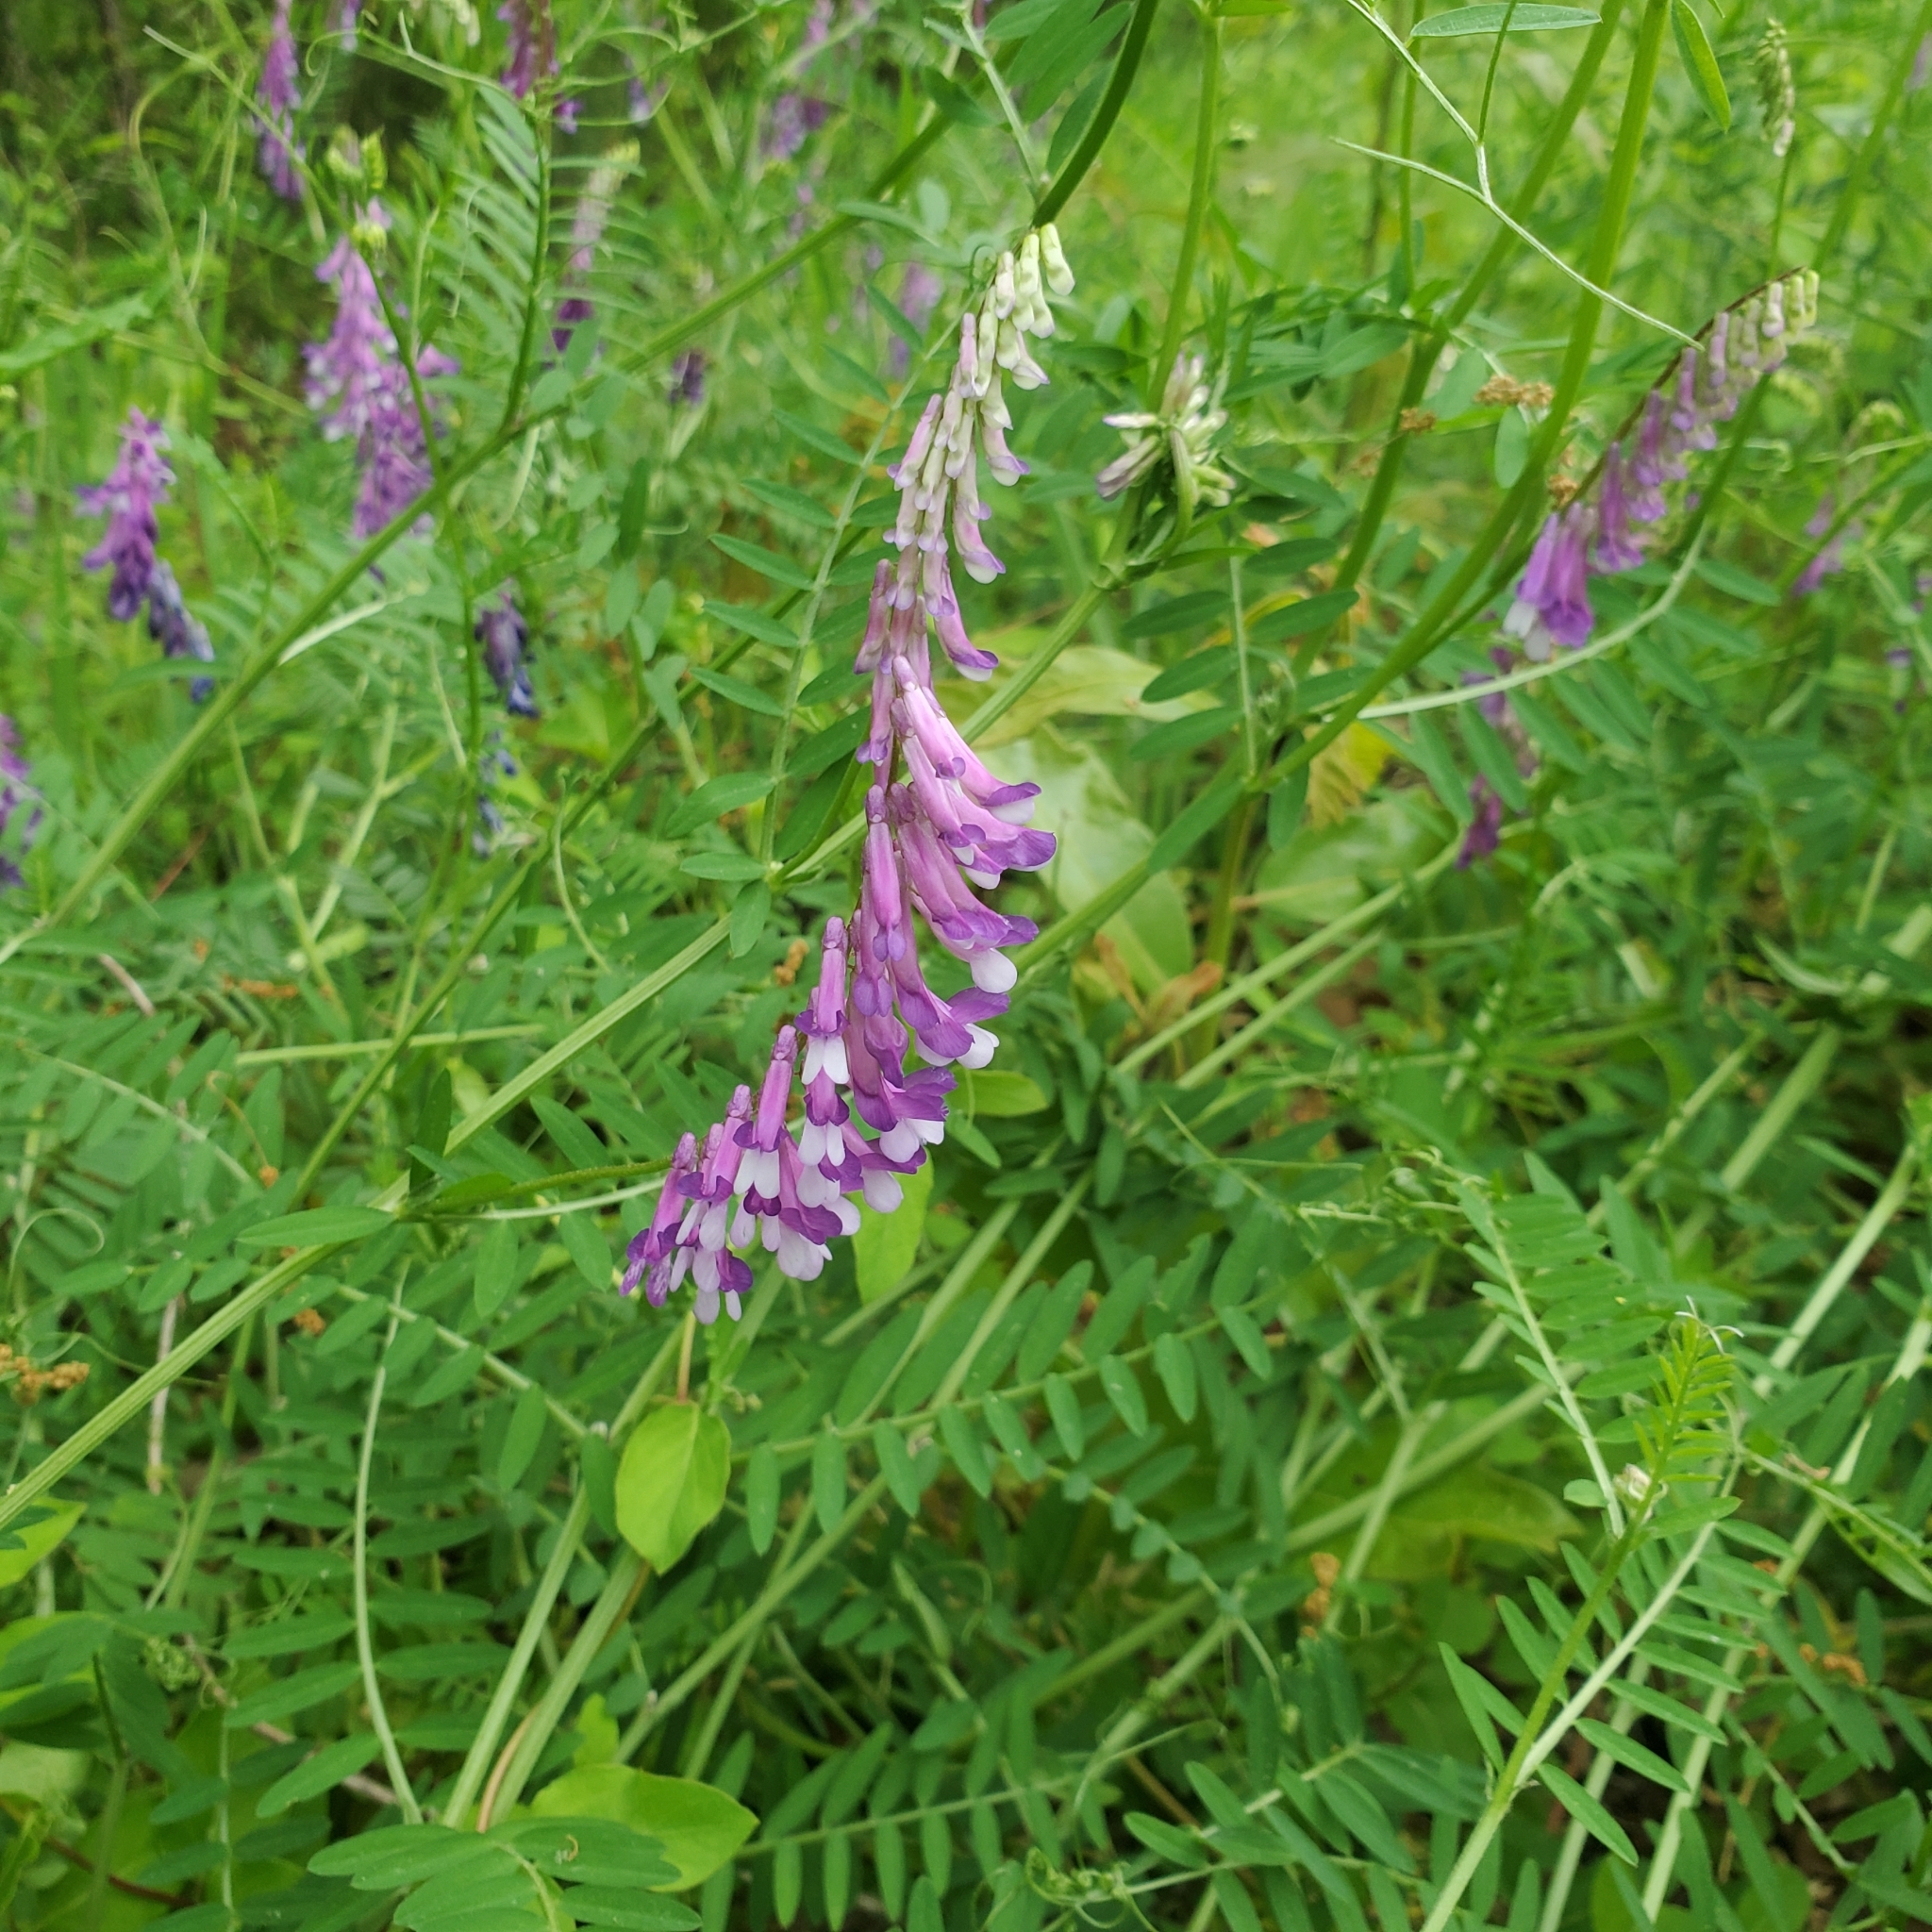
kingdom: Plantae
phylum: Tracheophyta
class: Magnoliopsida
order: Fabales
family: Fabaceae
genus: Vicia
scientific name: Vicia villosa
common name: Fodder vetch
